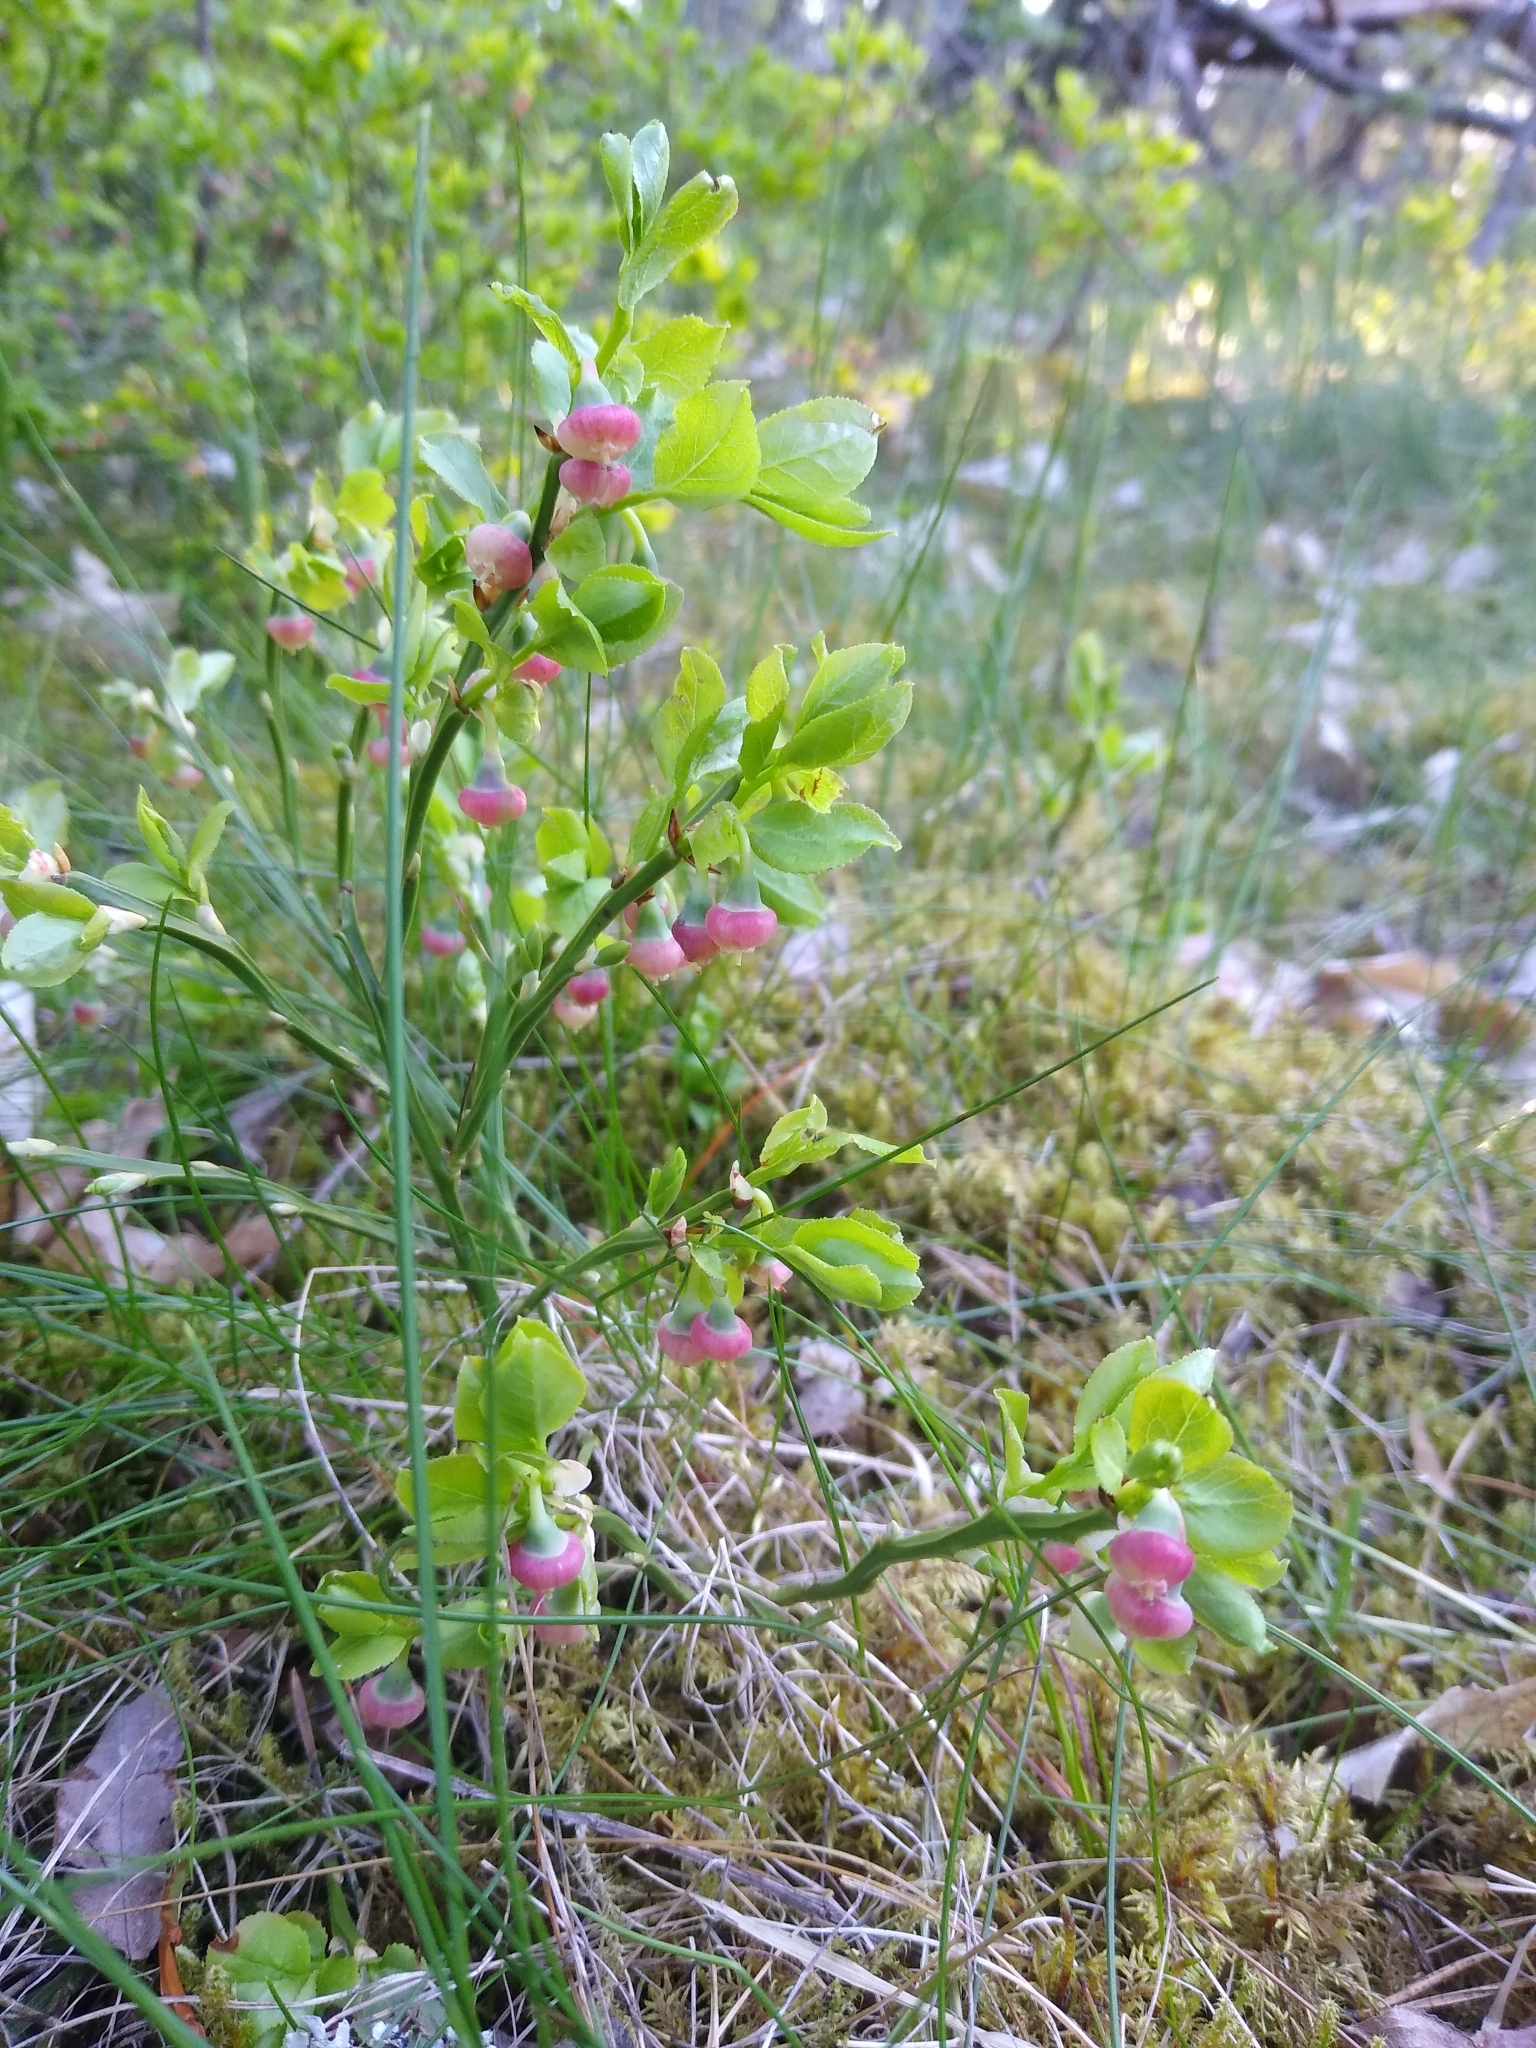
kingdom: Plantae
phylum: Tracheophyta
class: Magnoliopsida
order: Ericales
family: Ericaceae
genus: Vaccinium
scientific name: Vaccinium myrtillus
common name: Bilberry
